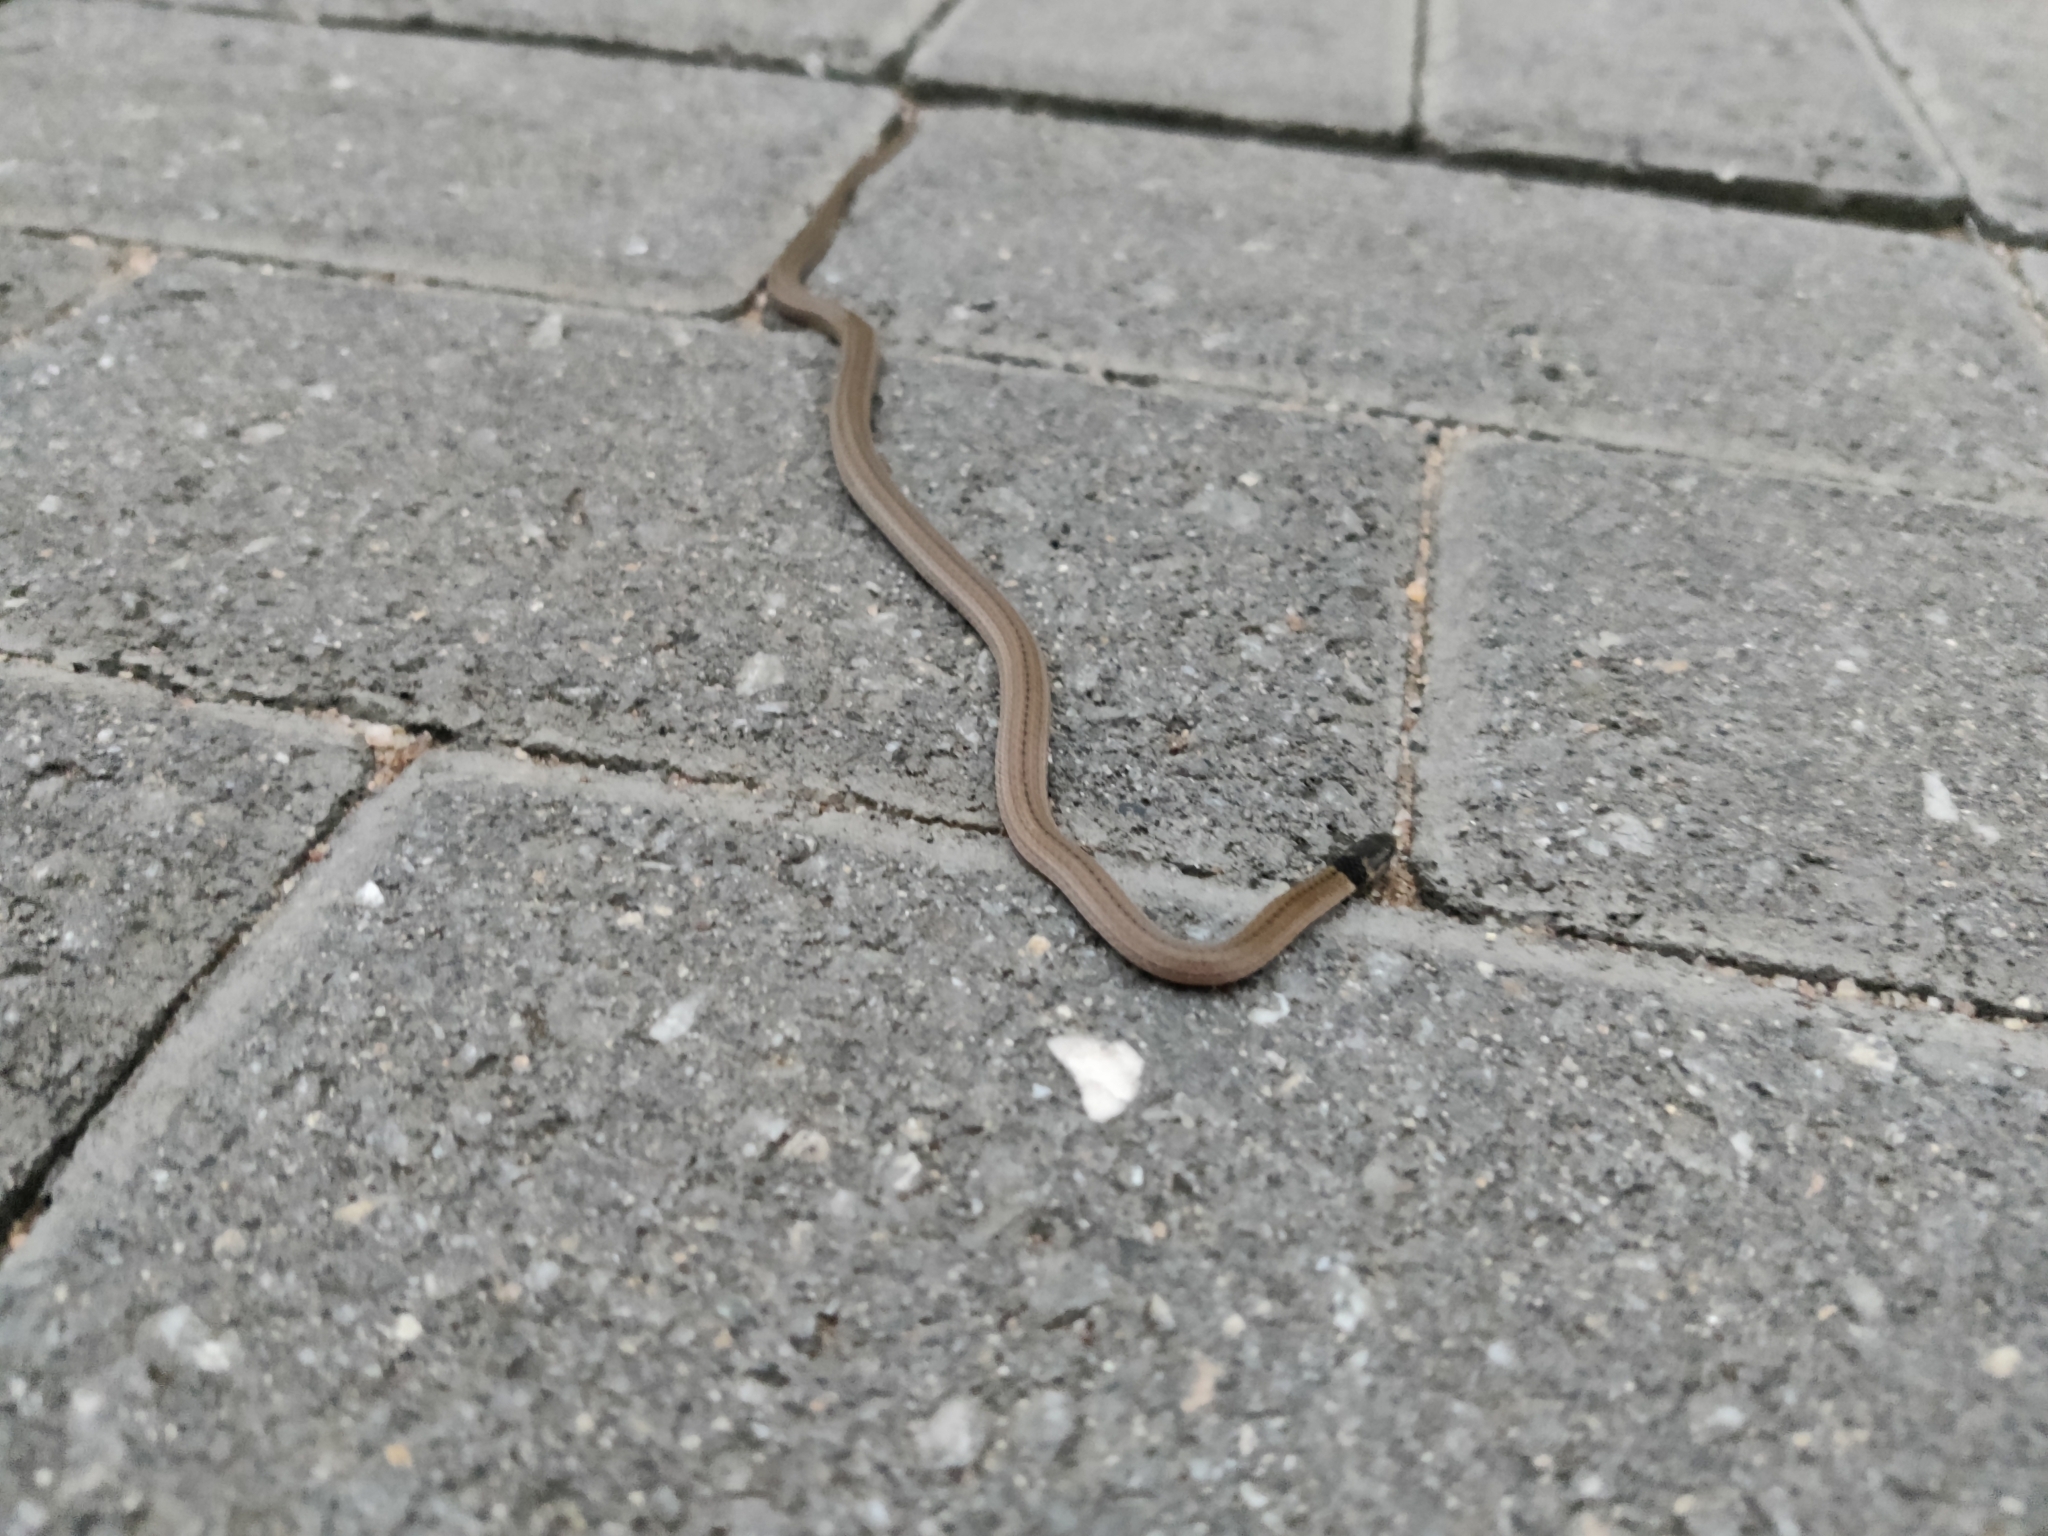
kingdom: Animalia
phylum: Chordata
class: Squamata
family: Atractaspididae
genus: Aparallactus
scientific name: Aparallactus capensis
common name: Cape centipede eater
